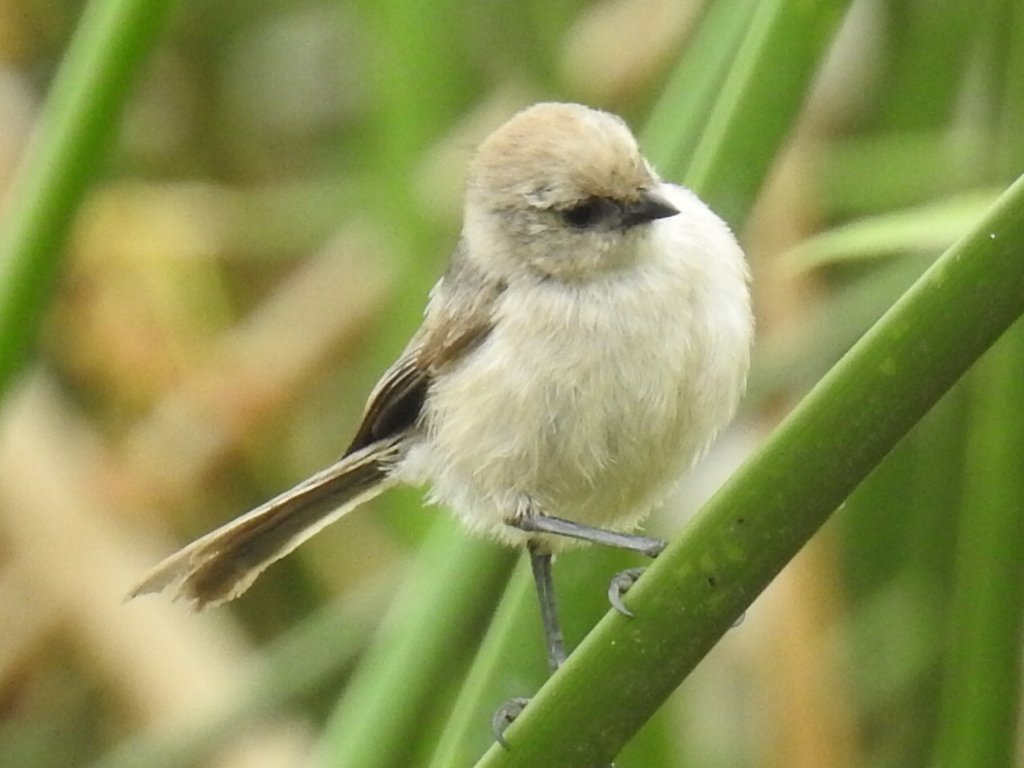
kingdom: Animalia
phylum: Chordata
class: Aves
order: Passeriformes
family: Aegithalidae
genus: Psaltriparus
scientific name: Psaltriparus minimus
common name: American bushtit
